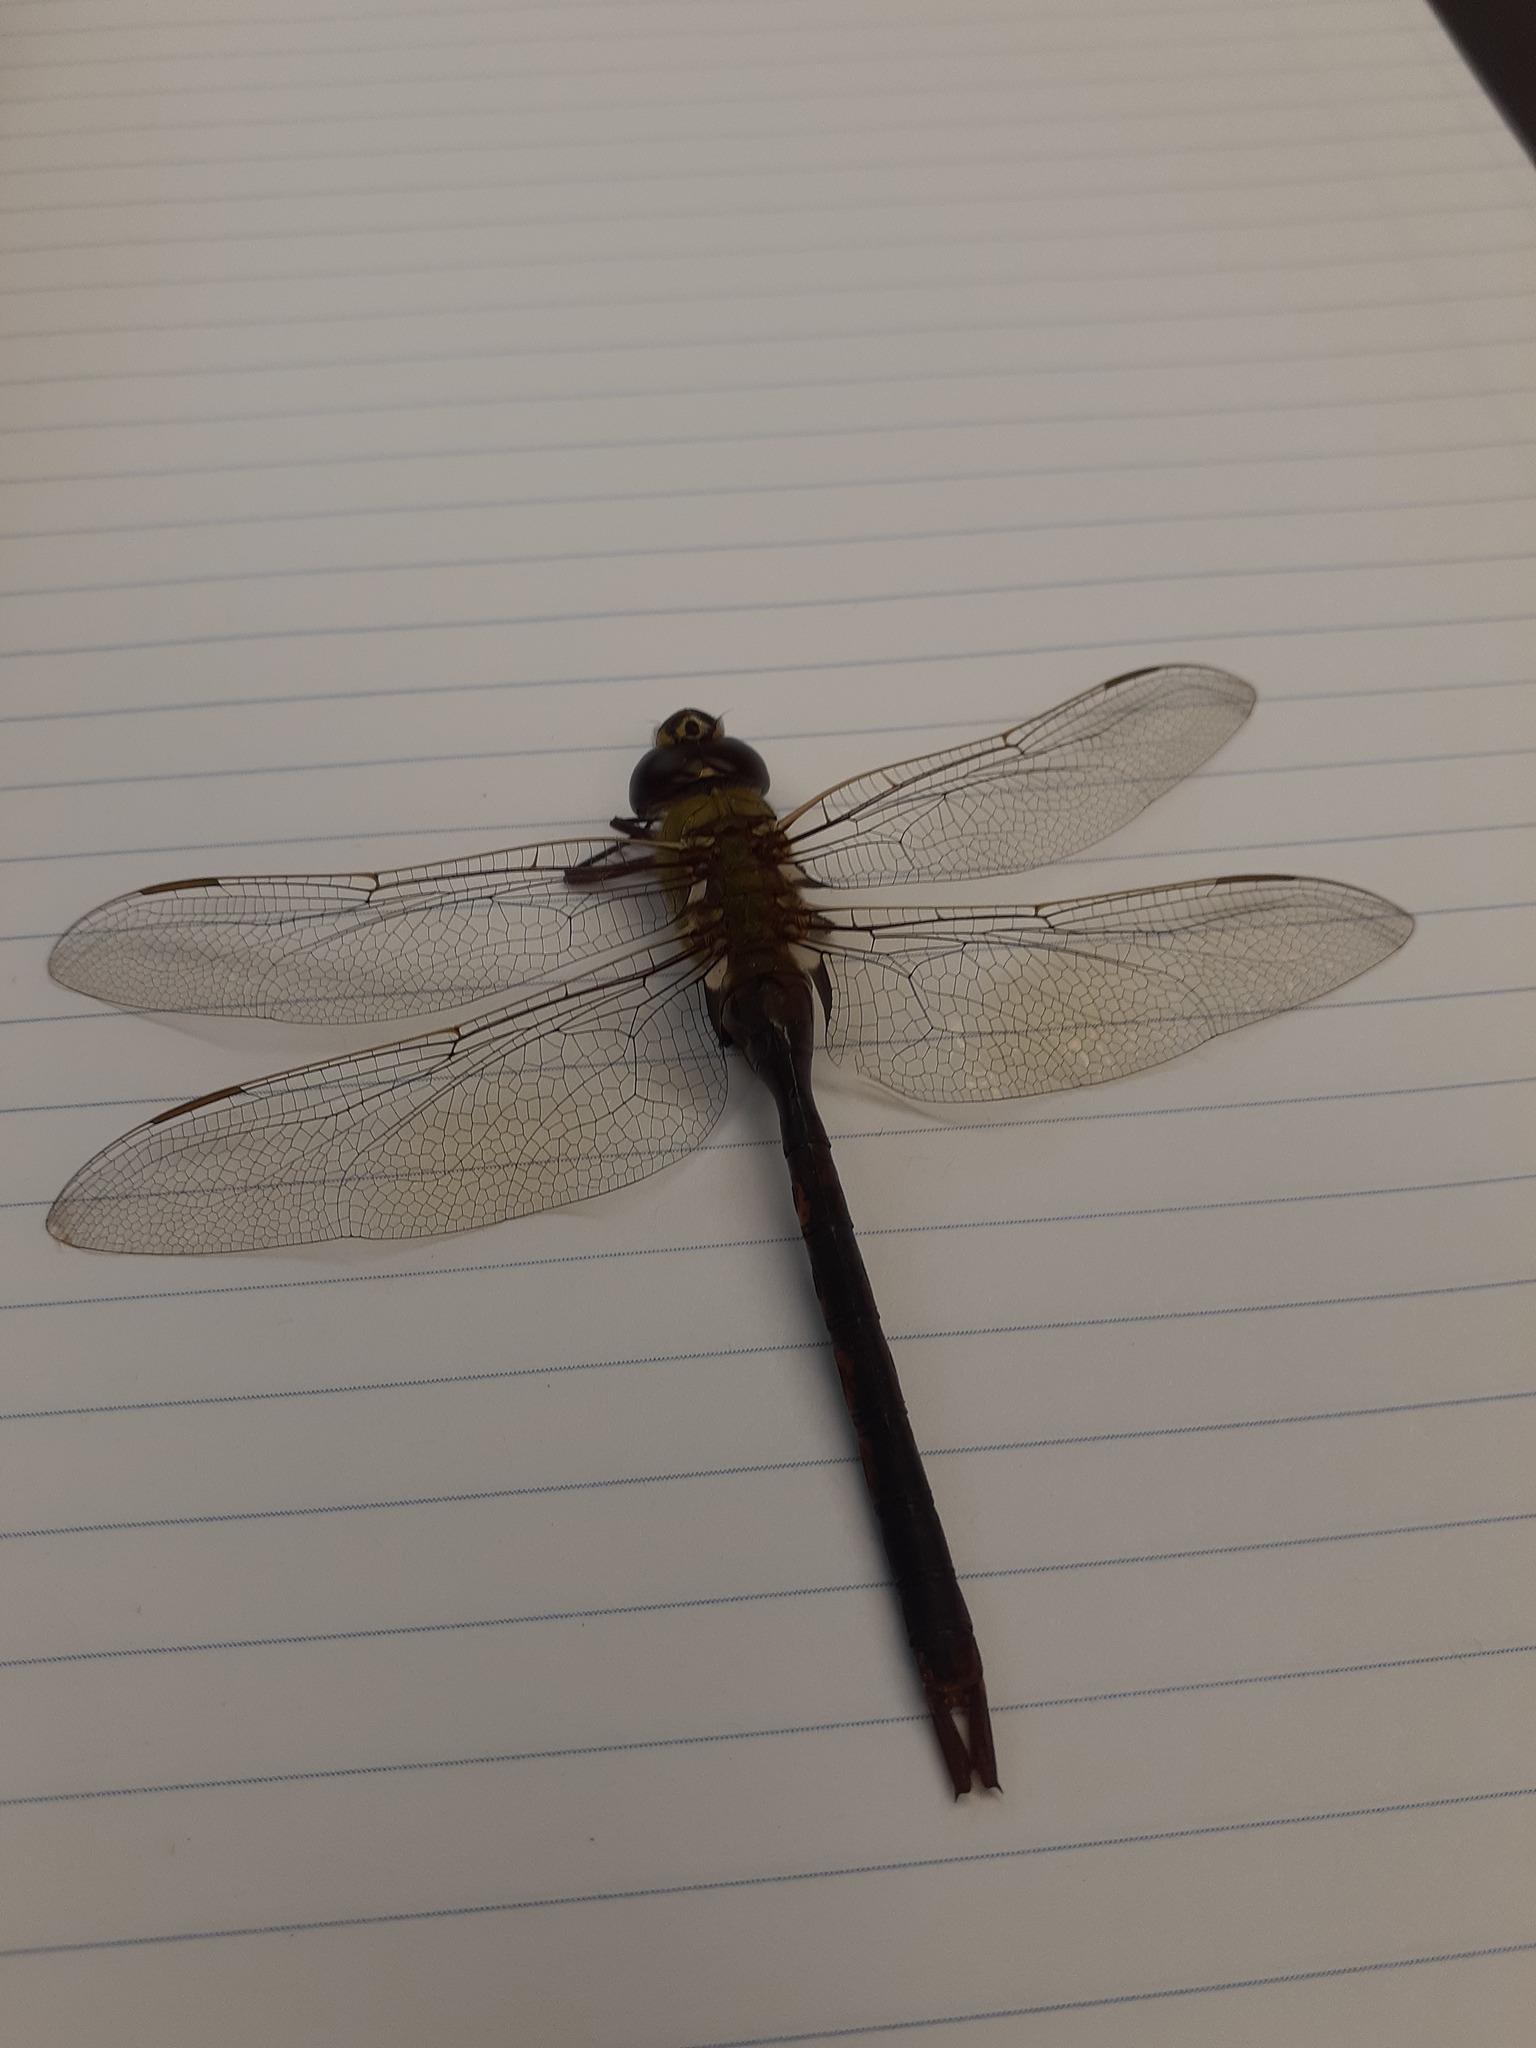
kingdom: Animalia
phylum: Arthropoda
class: Insecta
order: Odonata
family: Aeshnidae
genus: Anax
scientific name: Anax junius
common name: Common green darner
